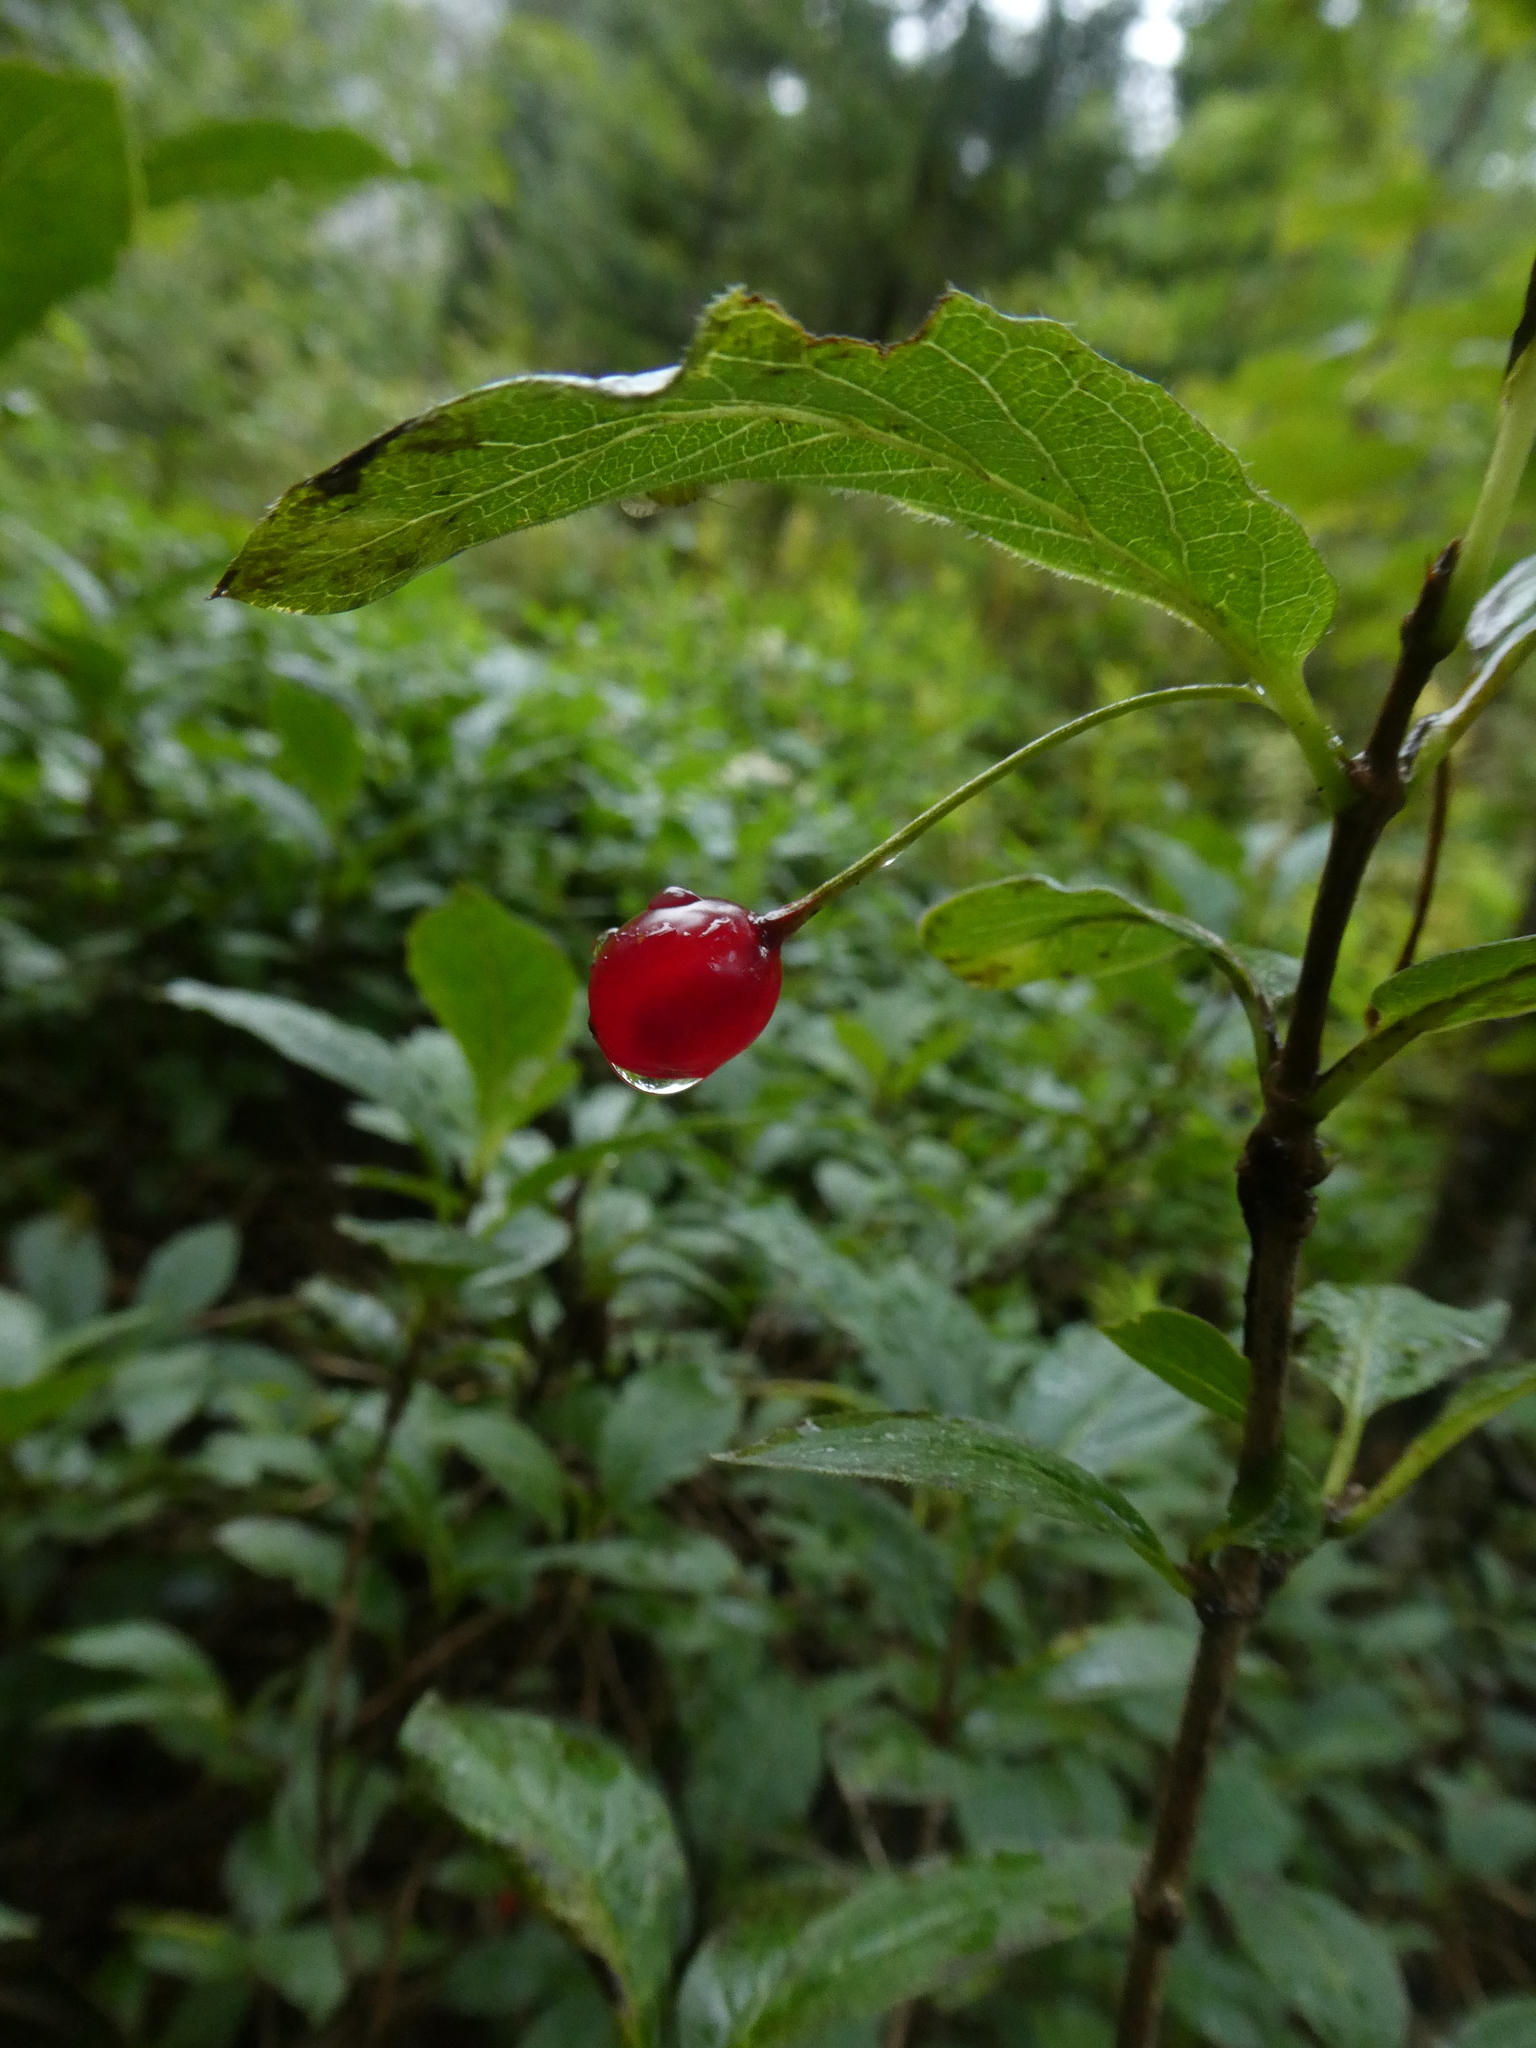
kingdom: Plantae
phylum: Tracheophyta
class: Magnoliopsida
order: Dipsacales
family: Caprifoliaceae
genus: Lonicera
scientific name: Lonicera alpigena
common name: Alpine honeysuckle
